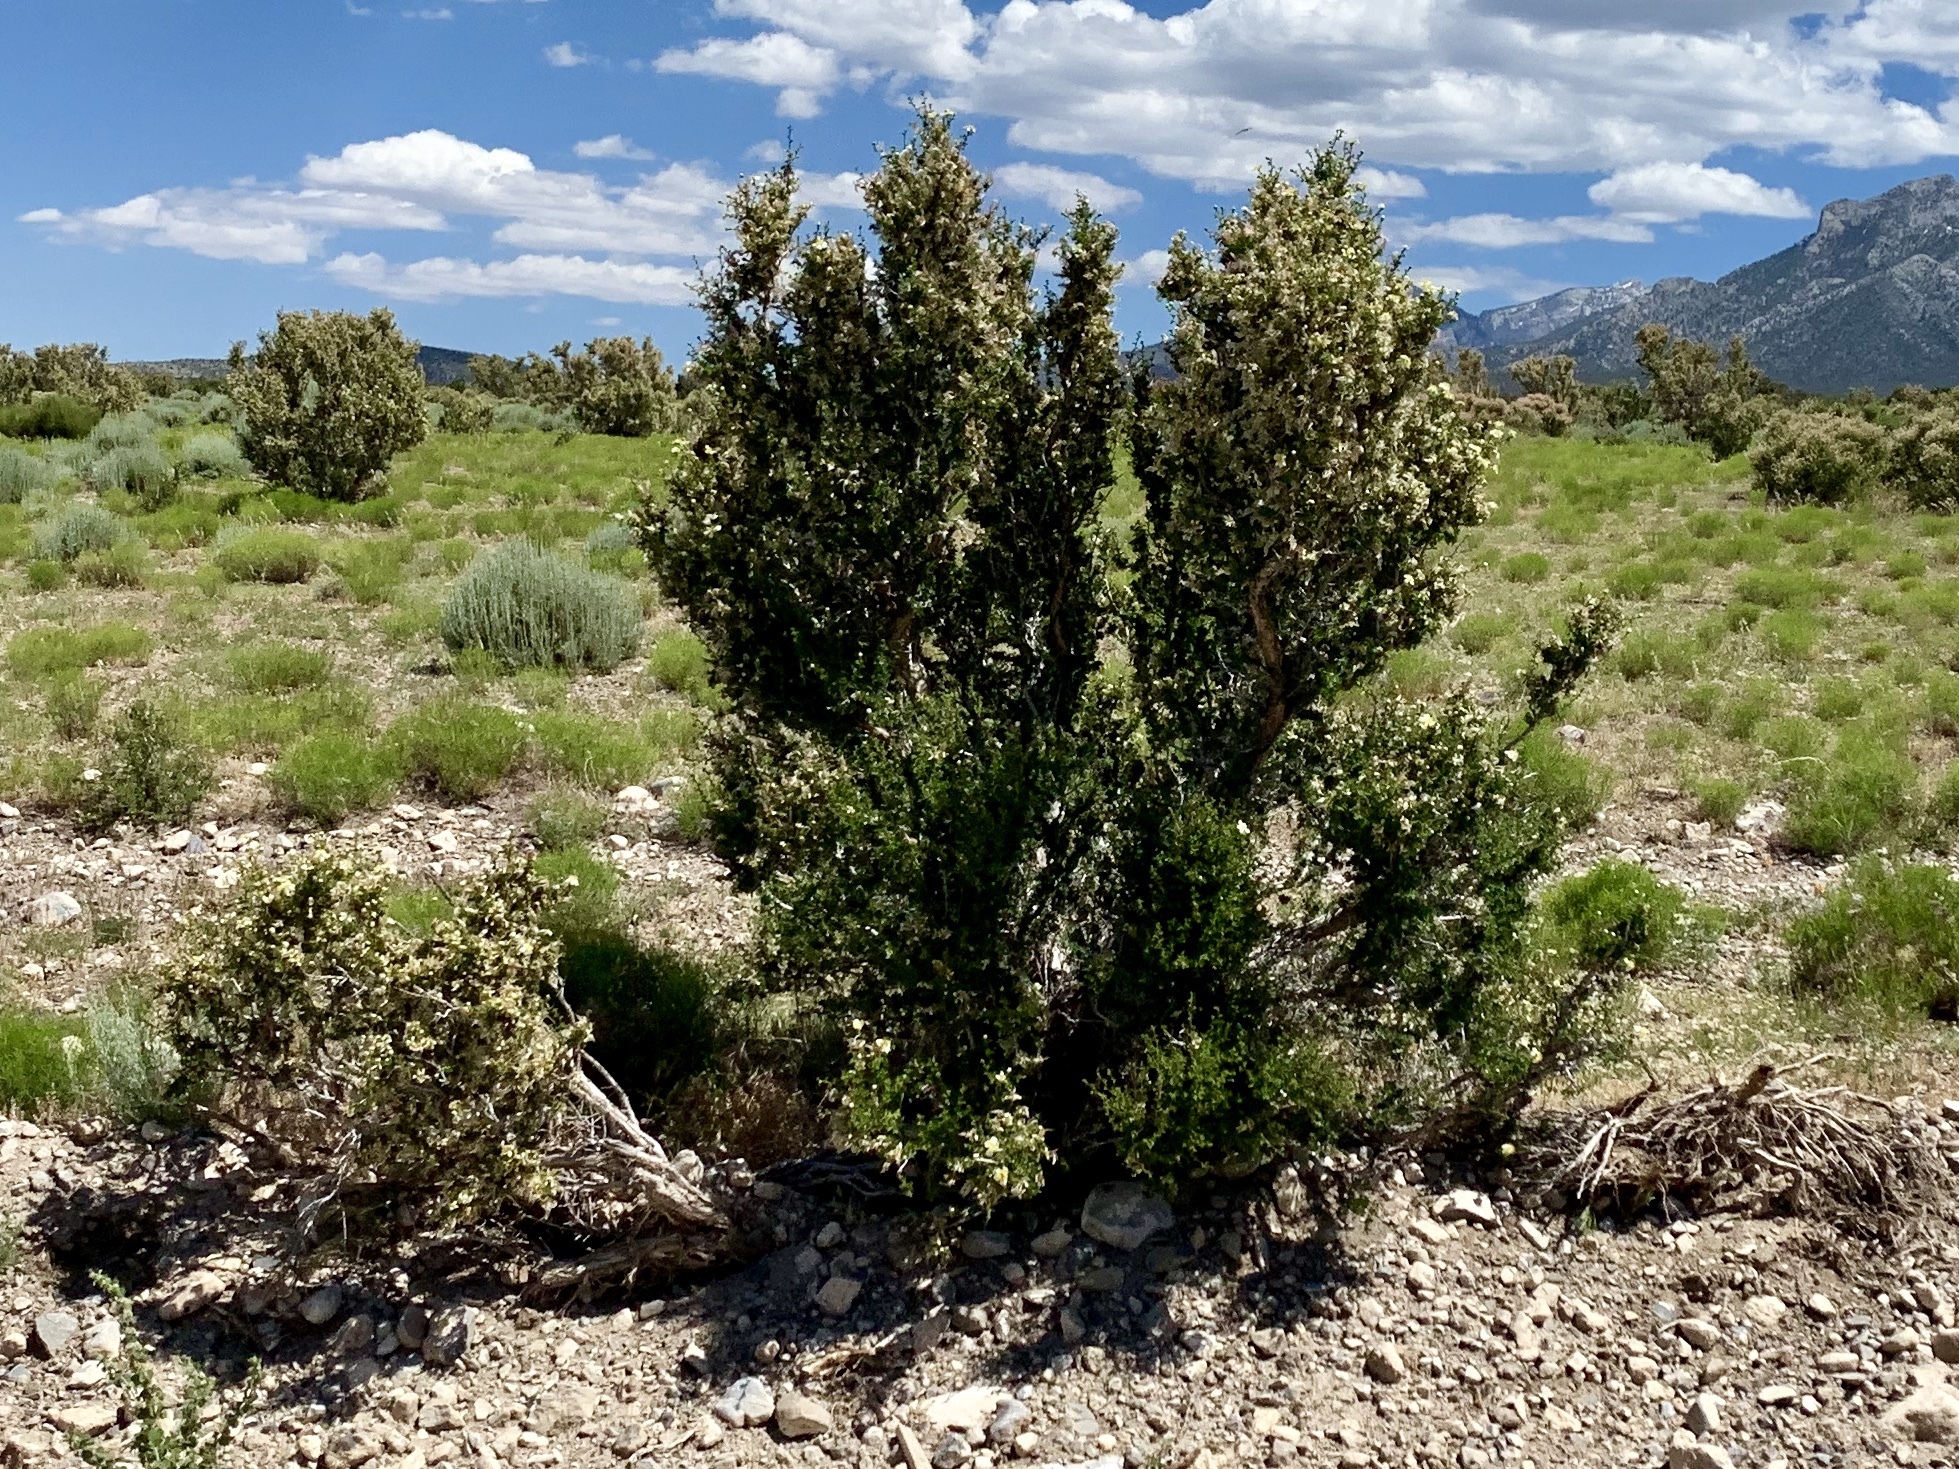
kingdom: Plantae
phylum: Tracheophyta
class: Magnoliopsida
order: Rosales
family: Rosaceae
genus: Purshia
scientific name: Purshia stansburiana
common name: Stansbury's cliffrose
